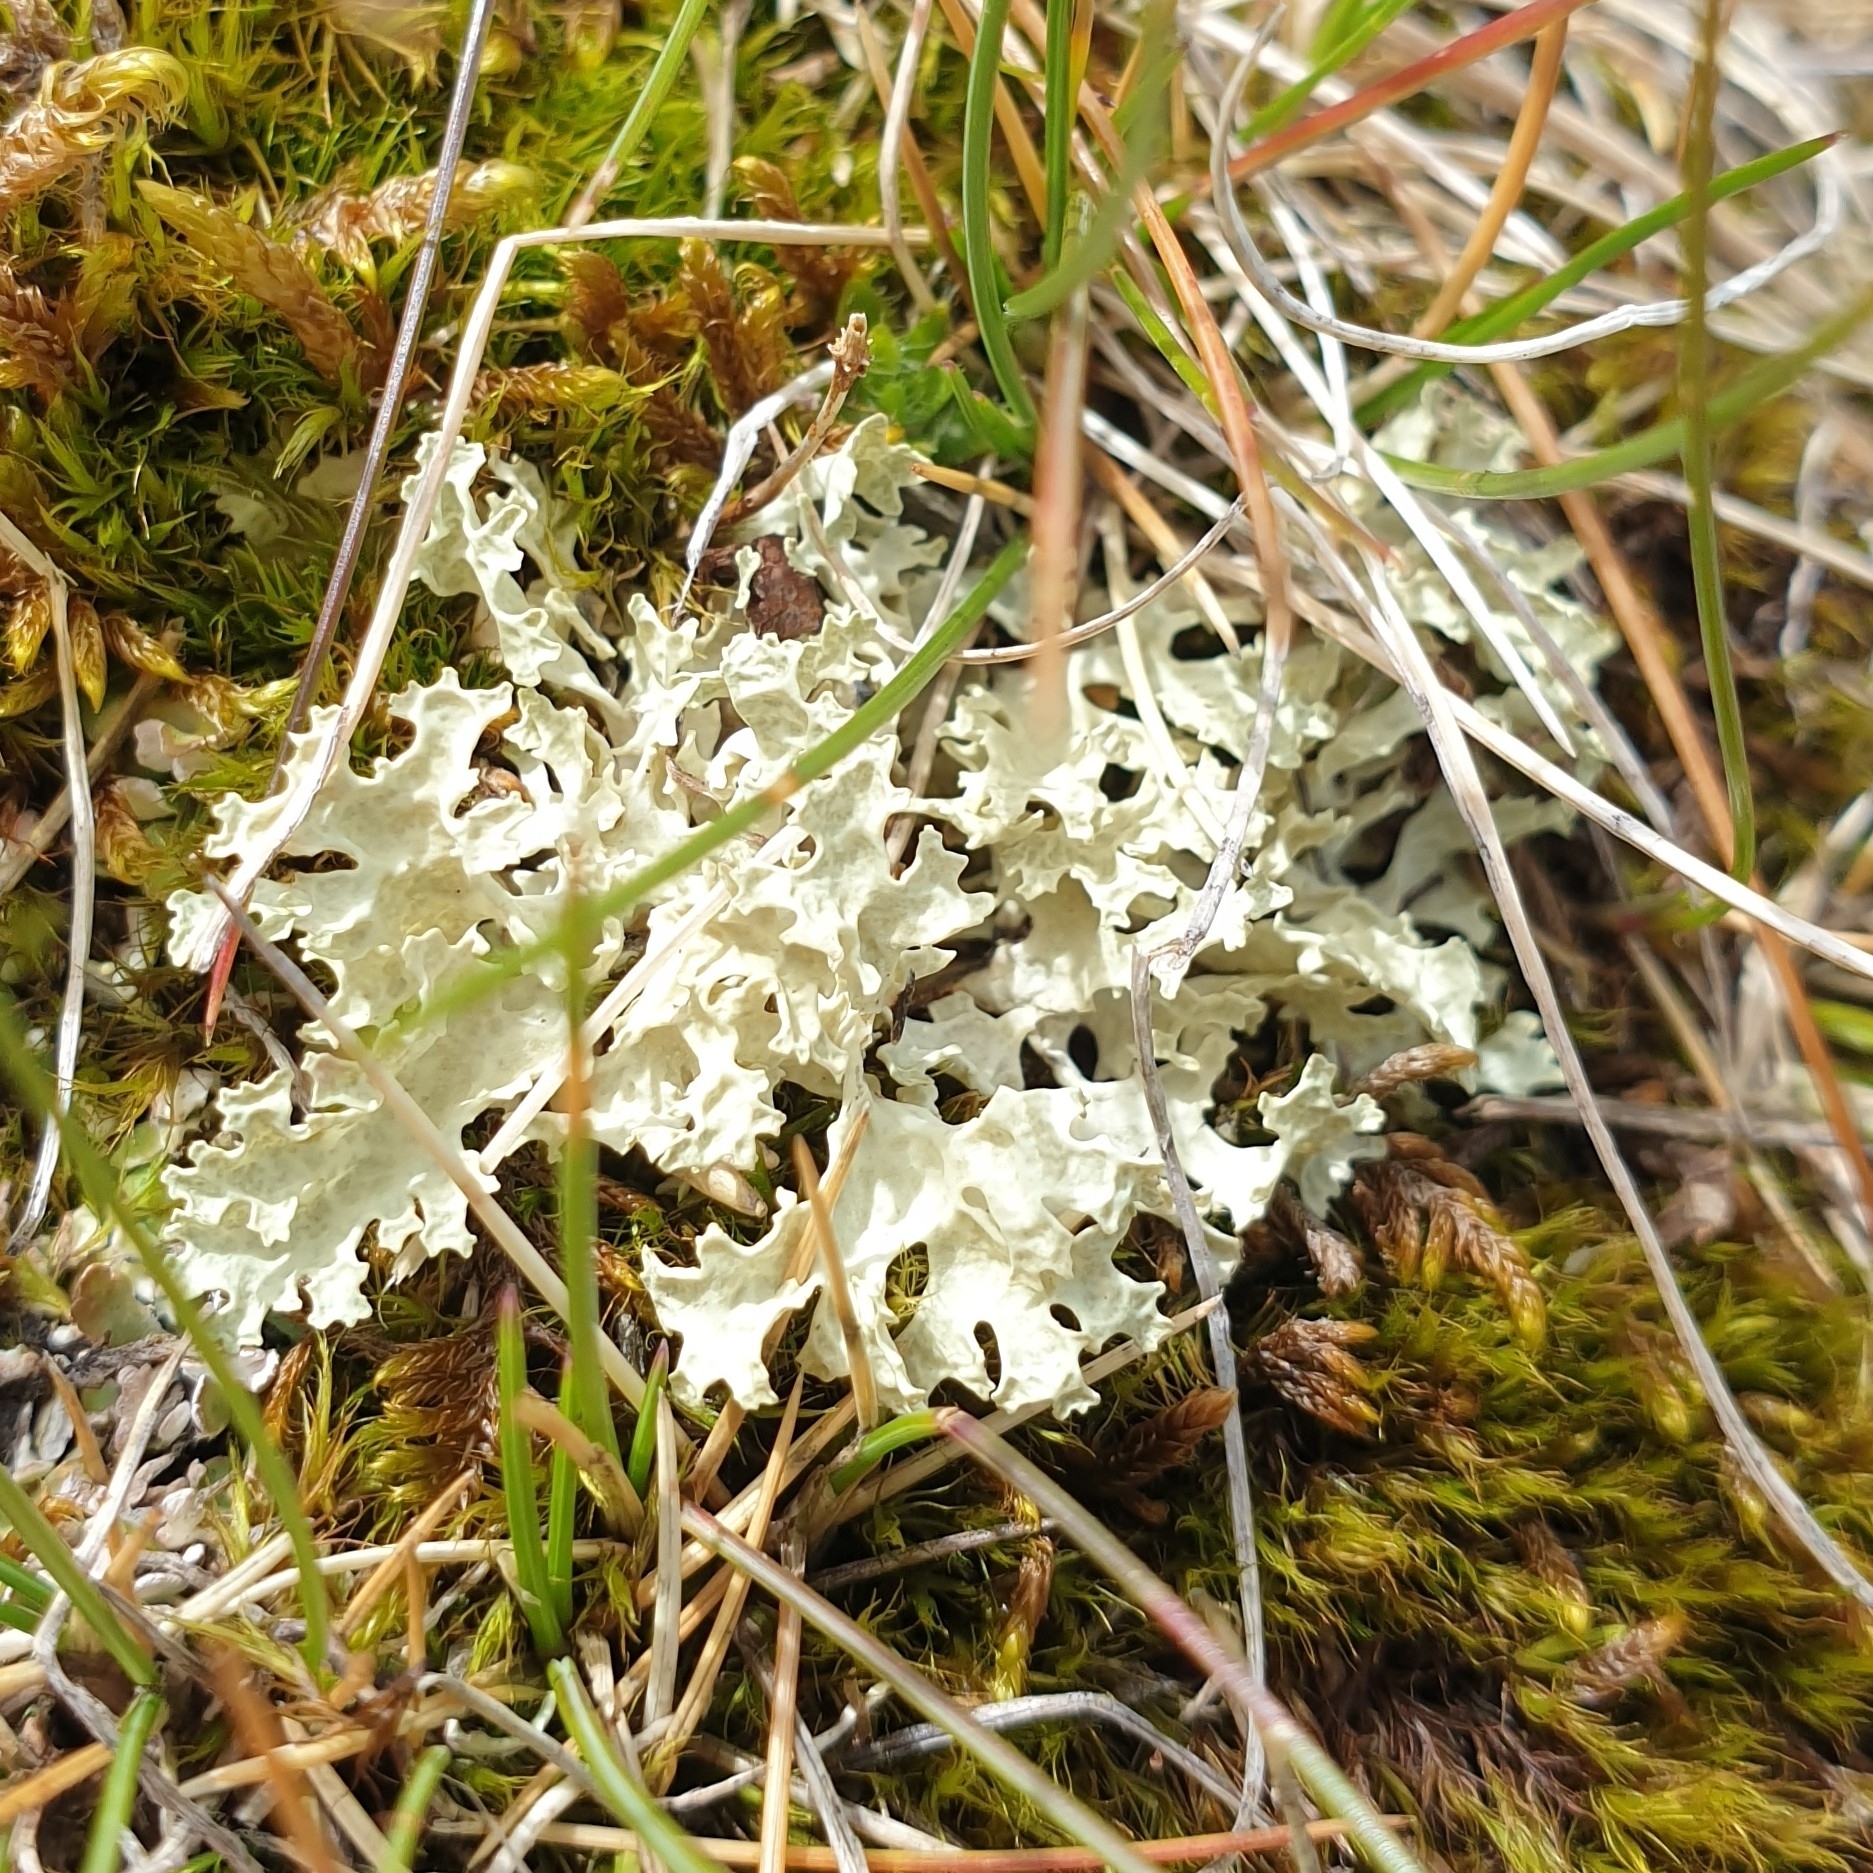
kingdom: Fungi
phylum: Ascomycota
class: Lecanoromycetes
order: Lecanorales
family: Parmeliaceae
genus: Nephromopsis
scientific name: Nephromopsis nivalis
